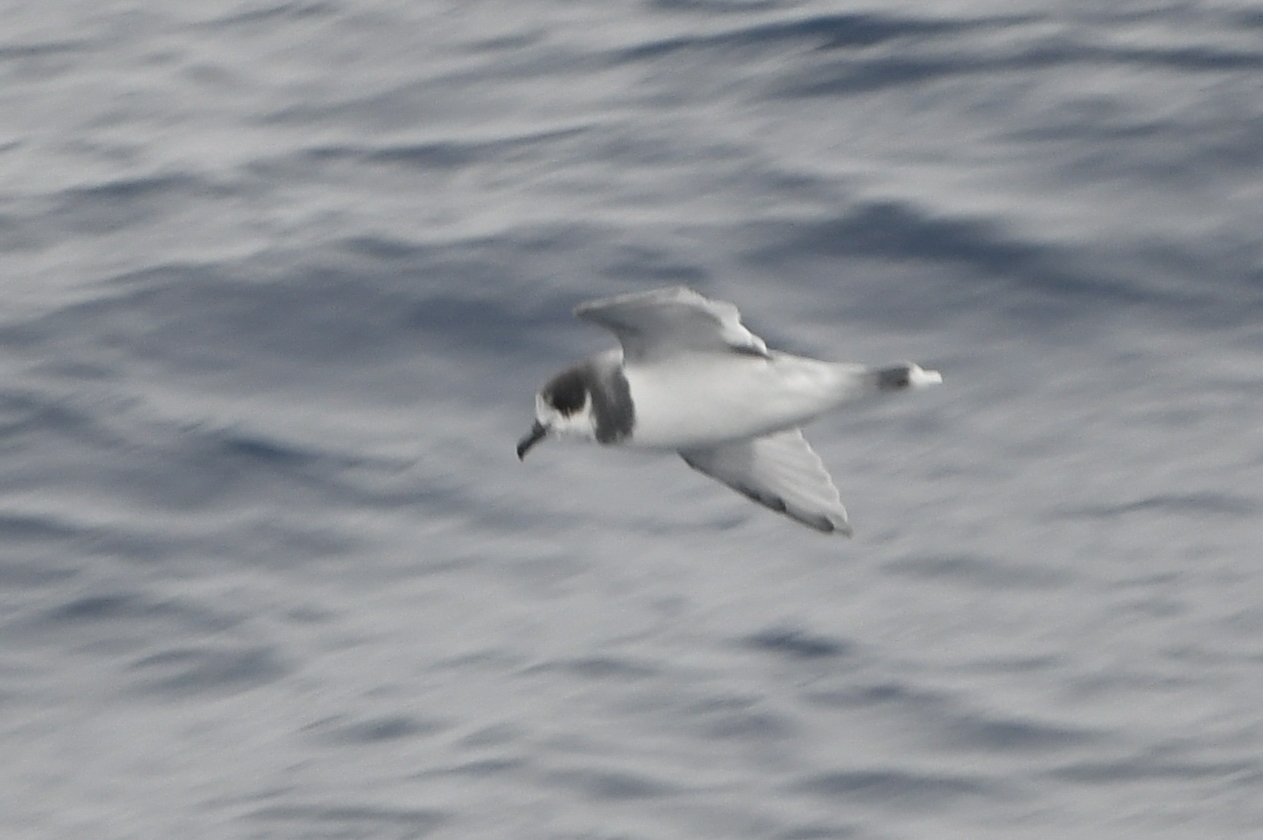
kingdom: Animalia
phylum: Chordata
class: Aves
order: Procellariiformes
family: Procellariidae
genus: Halobaena
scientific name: Halobaena caerulea
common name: Blue petrel
